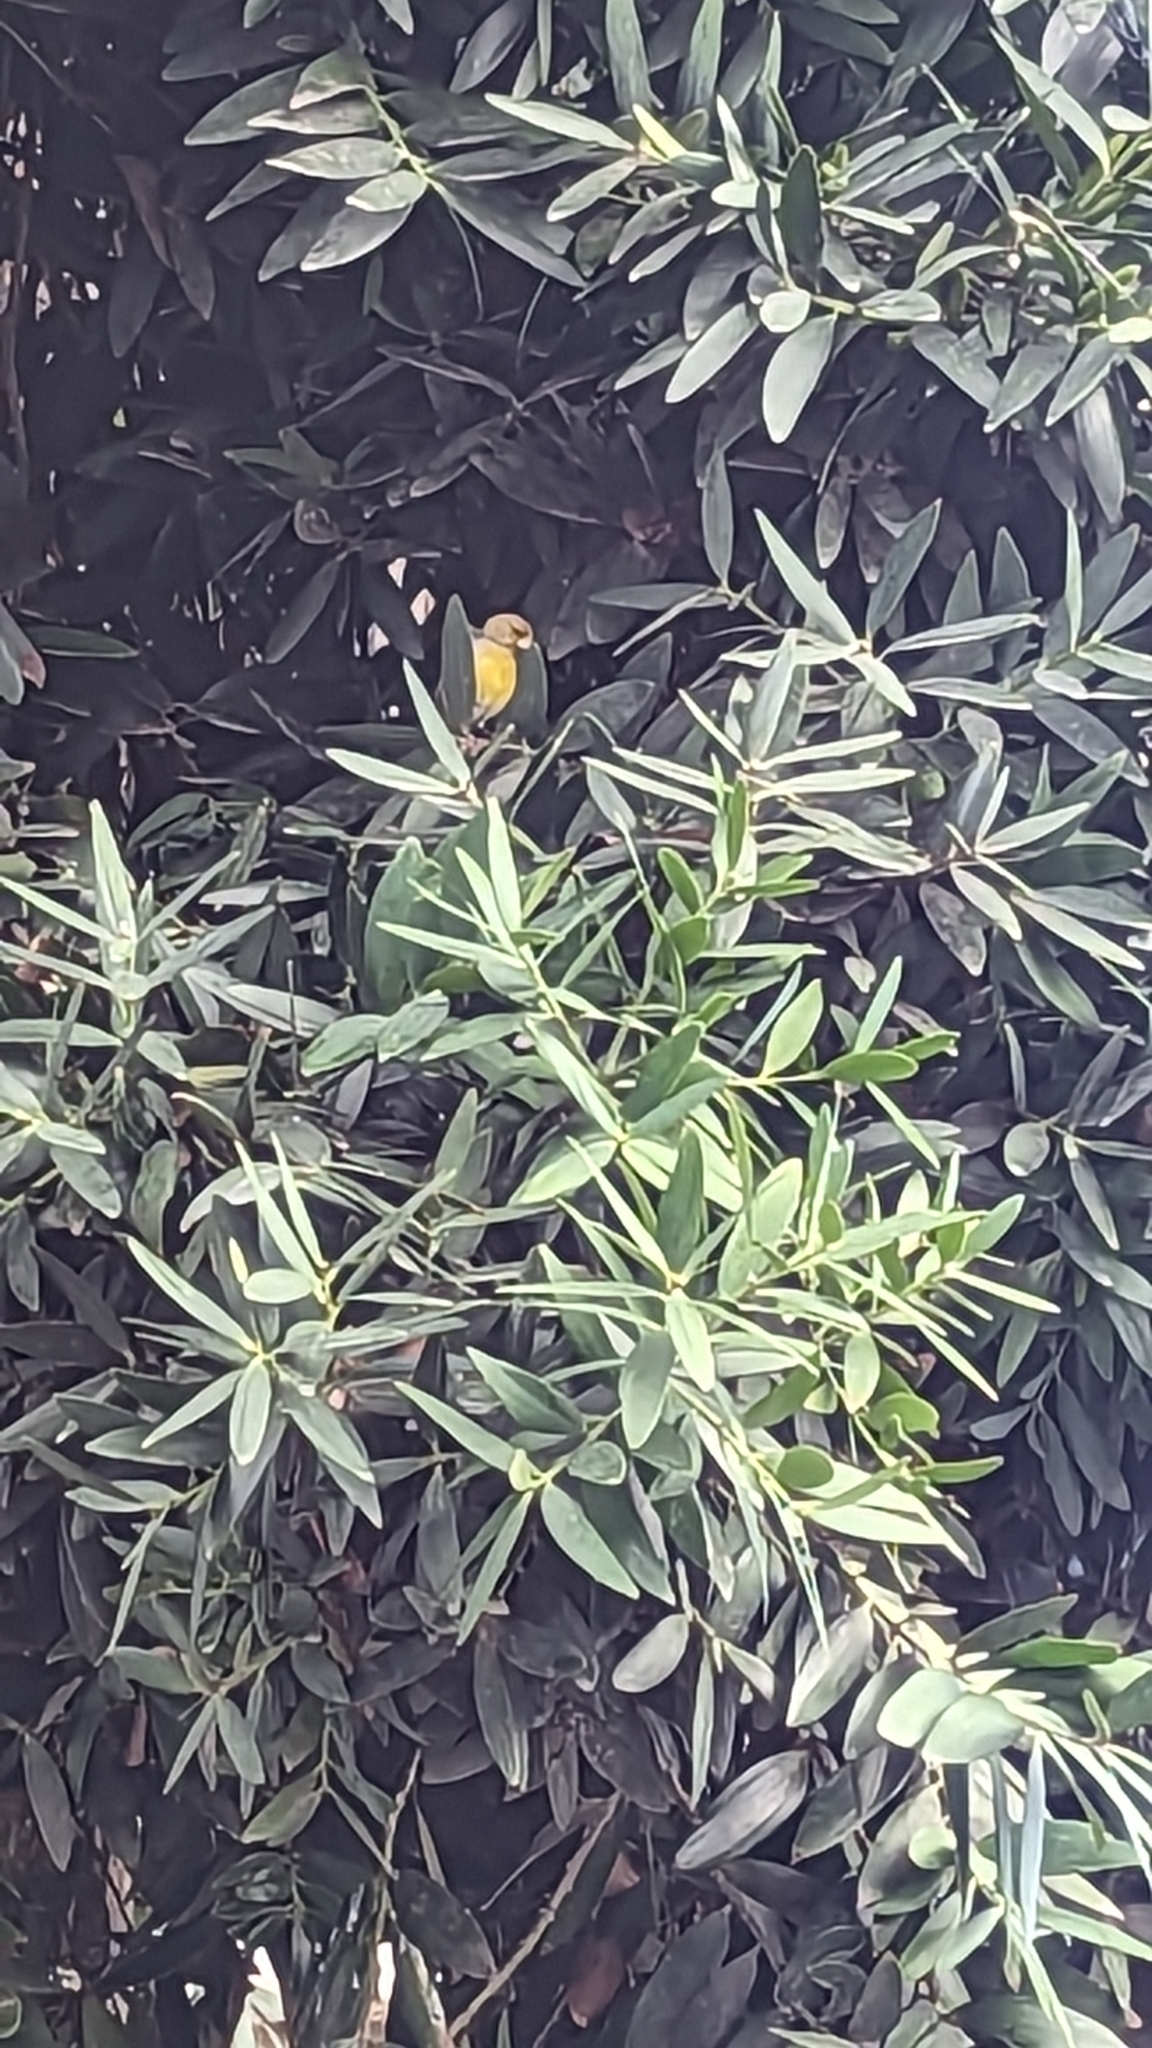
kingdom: Animalia
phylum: Chordata
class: Aves
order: Passeriformes
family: Fringillidae
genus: Serinus
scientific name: Serinus canaria
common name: Atlantic canary
